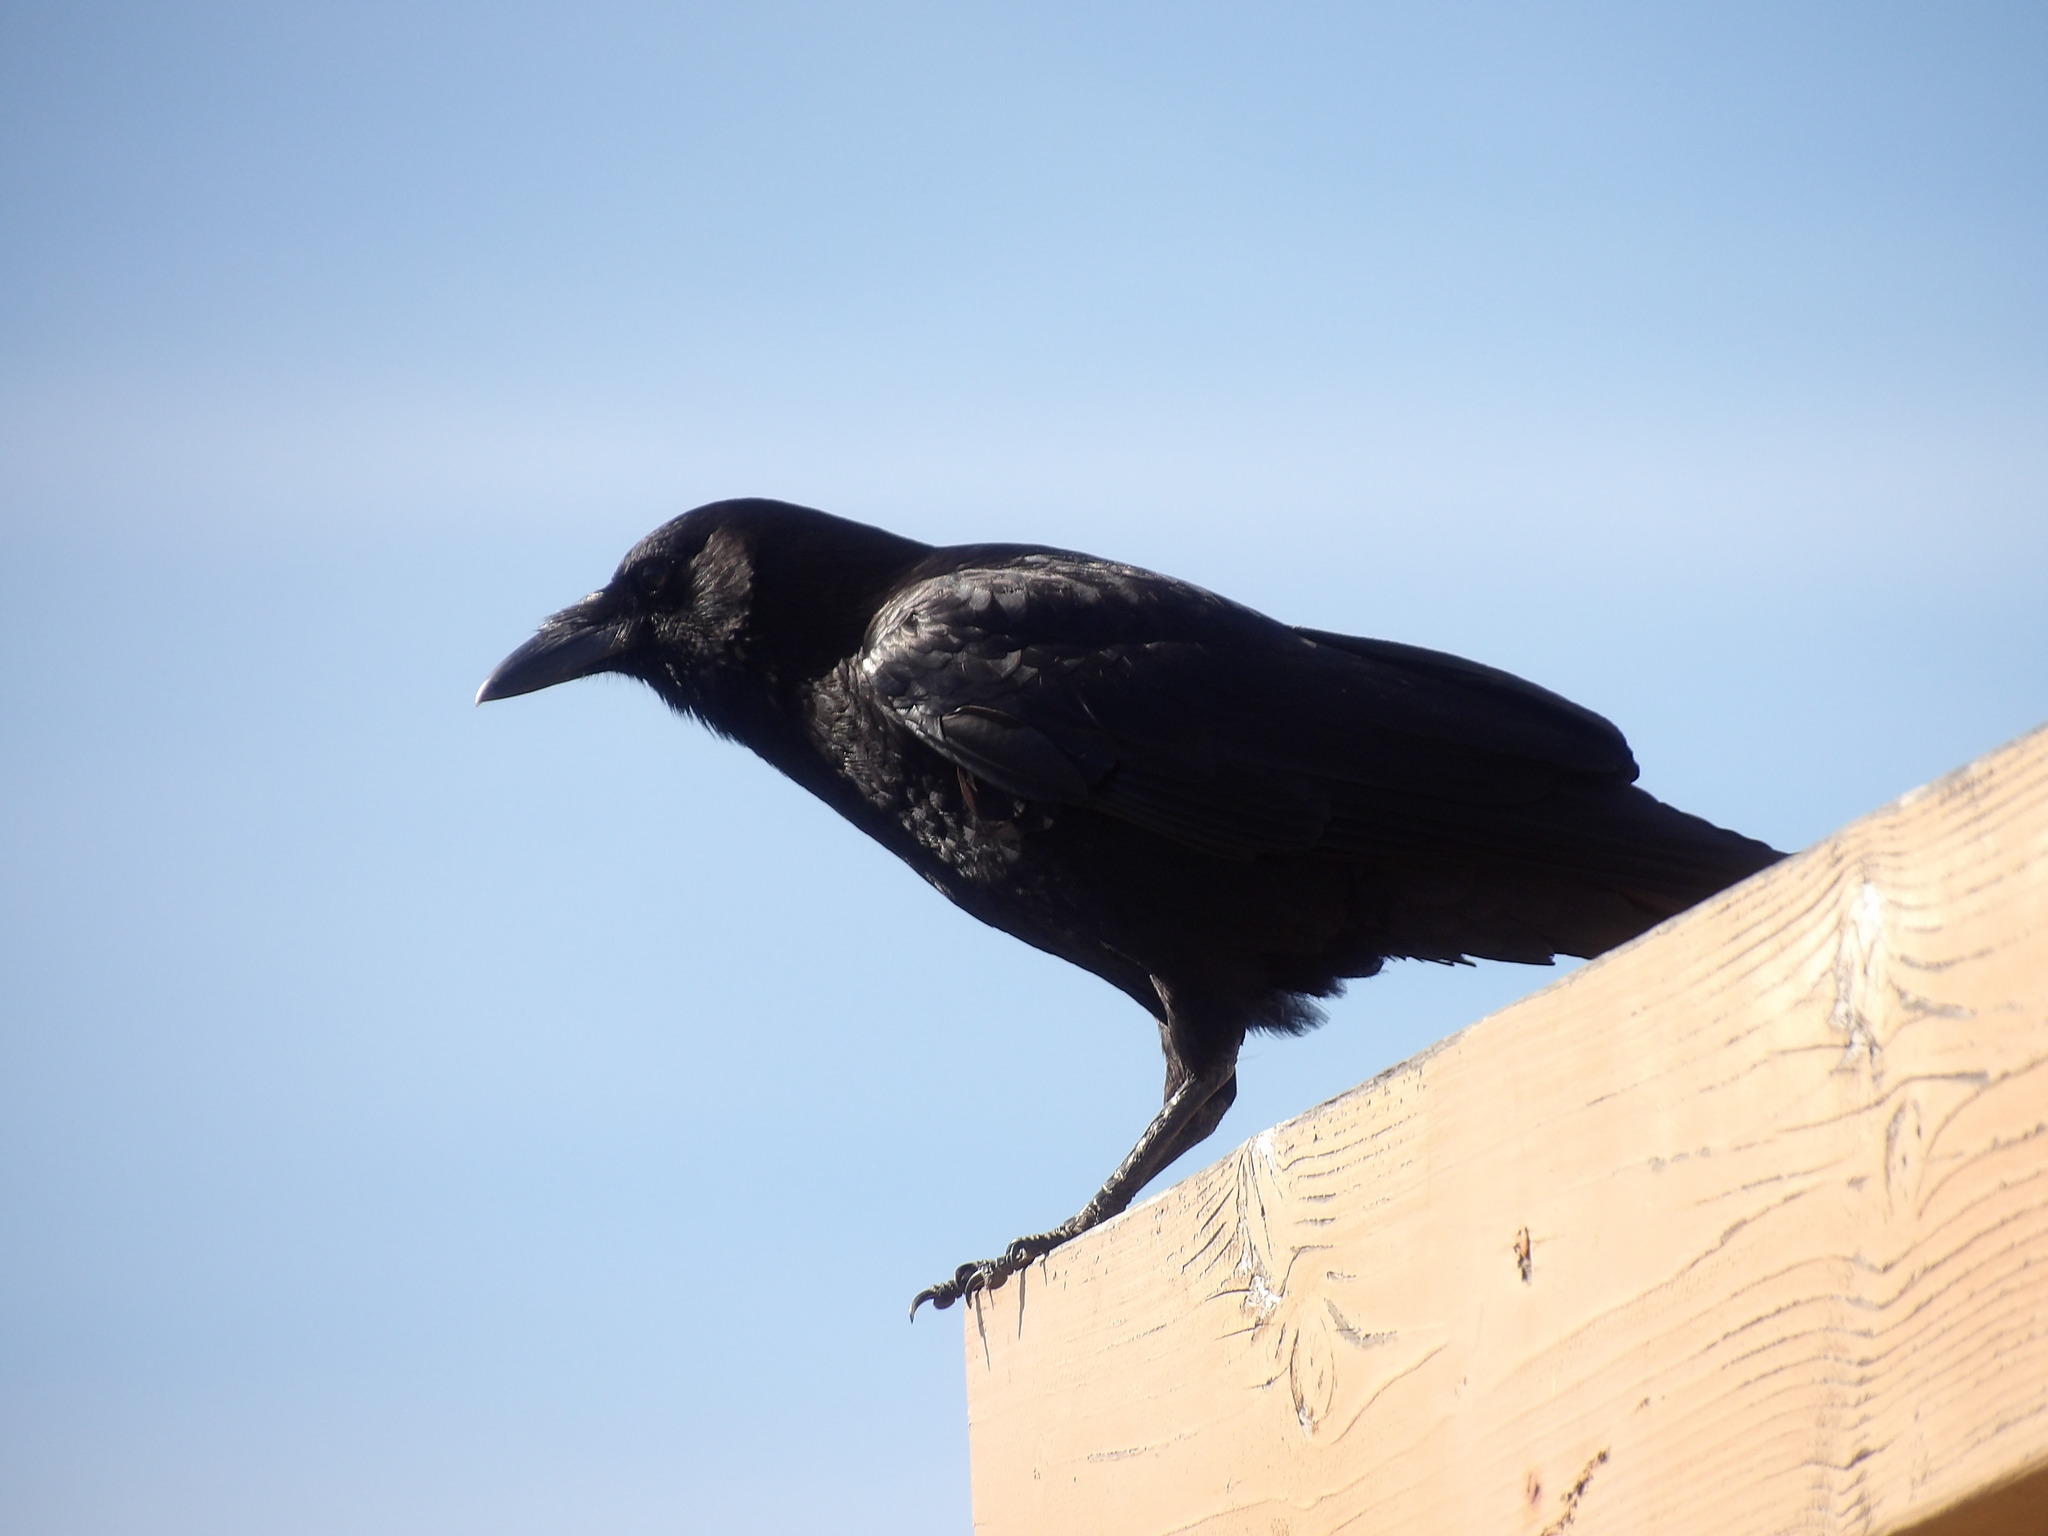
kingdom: Animalia
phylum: Chordata
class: Aves
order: Passeriformes
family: Corvidae
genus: Corvus
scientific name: Corvus brachyrhynchos
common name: American crow
